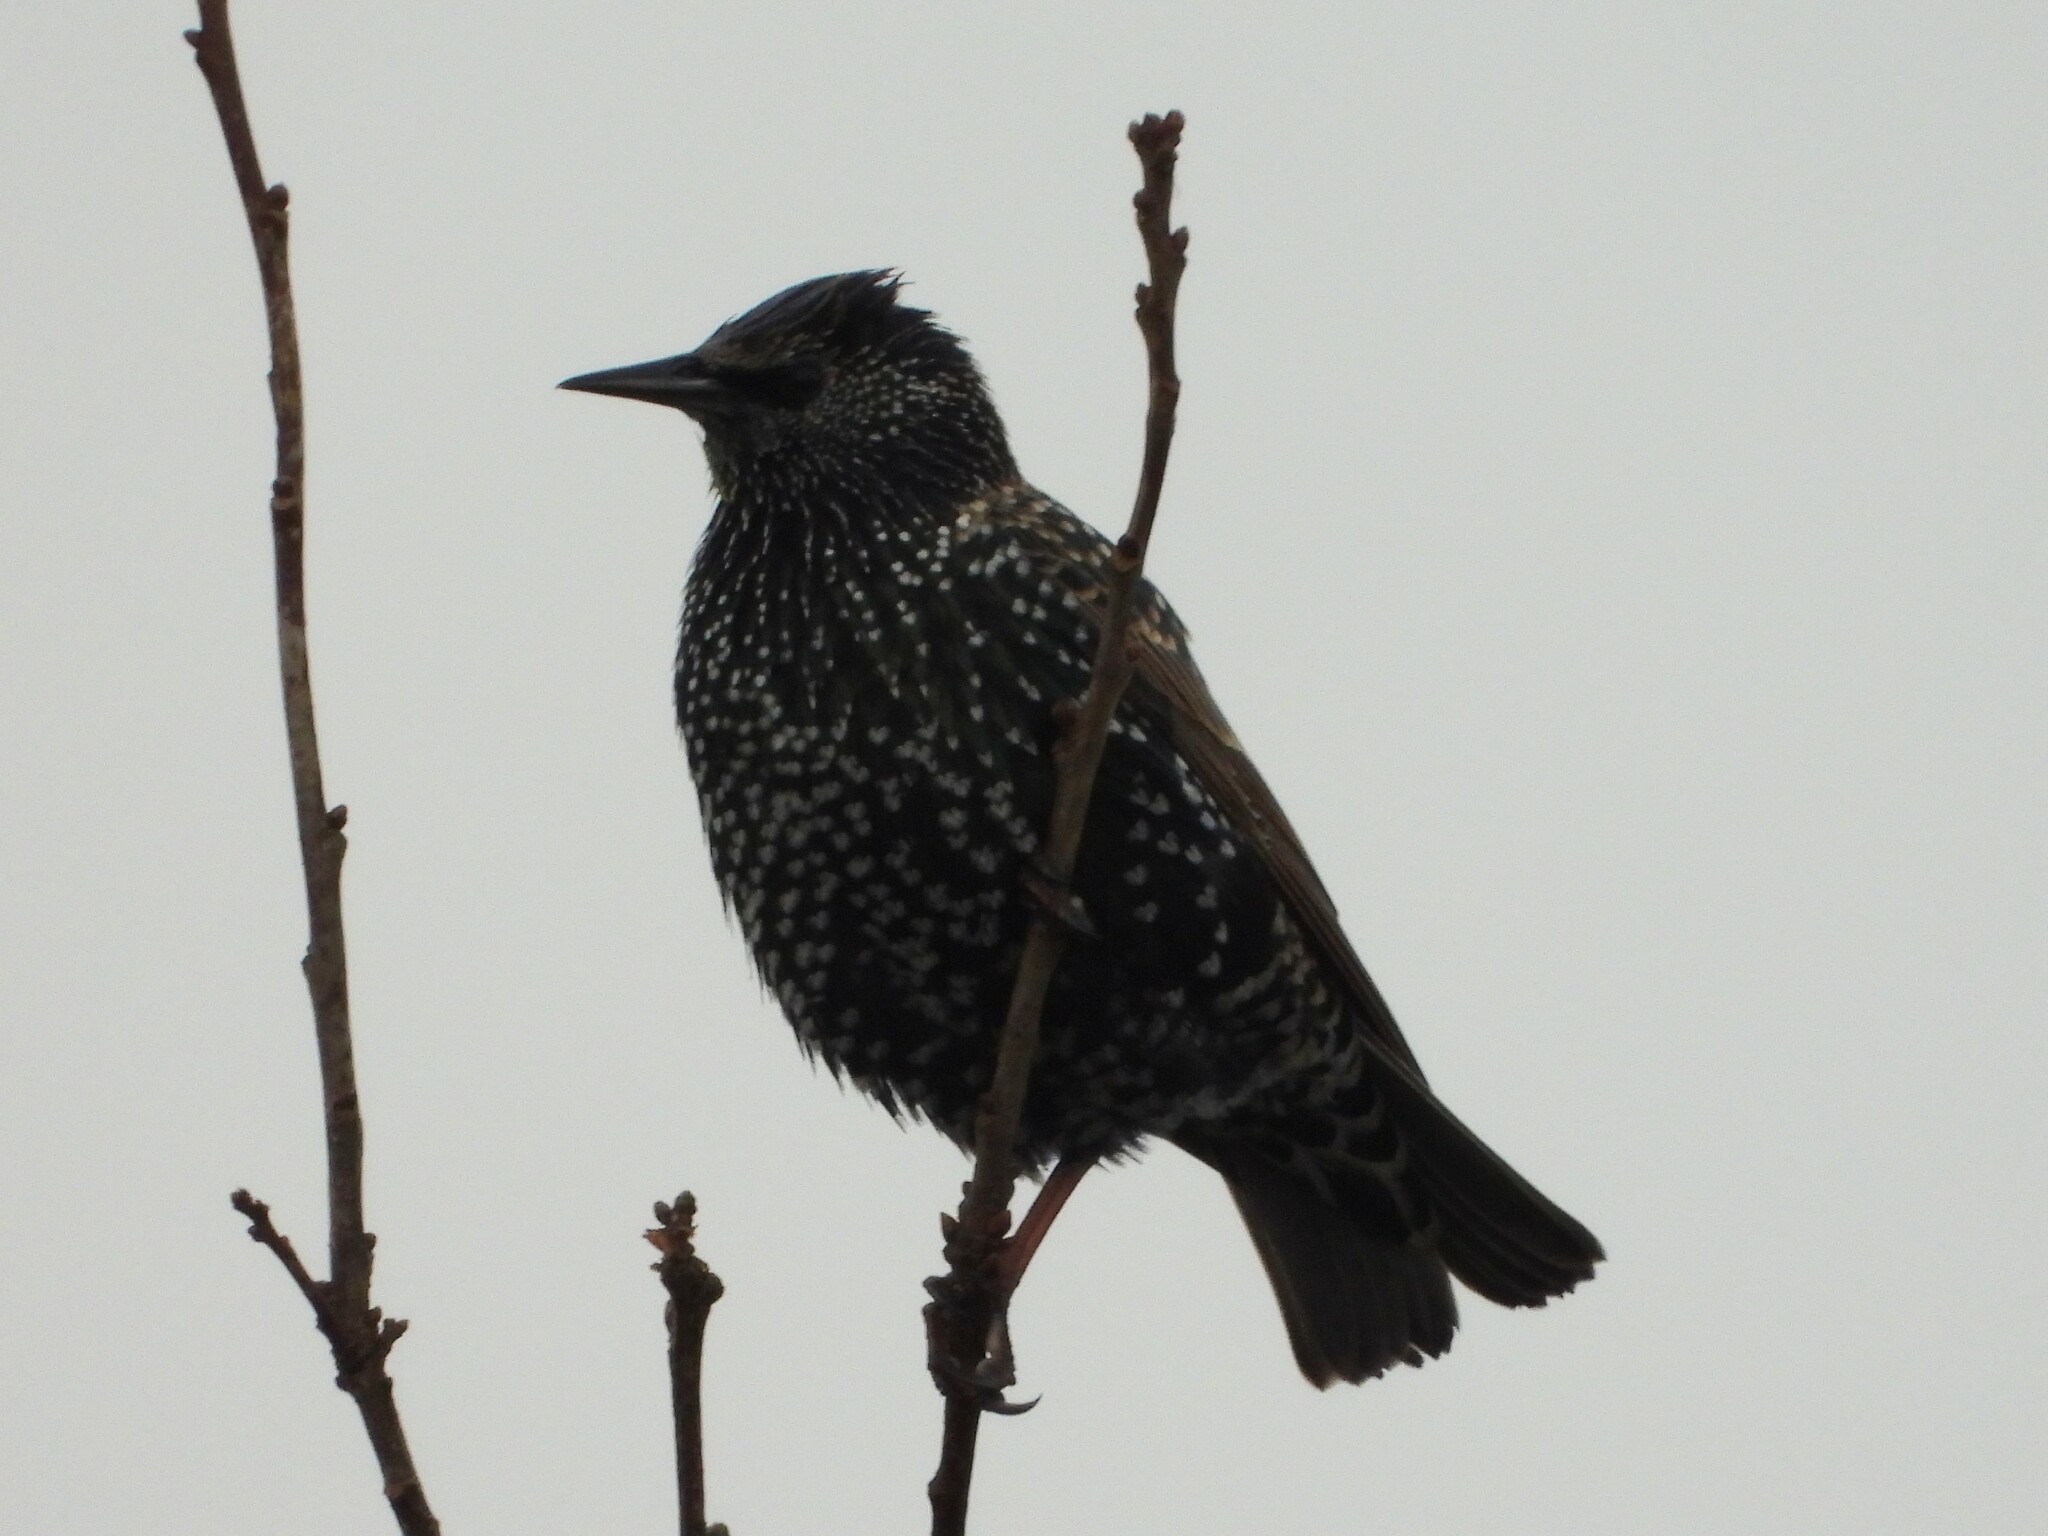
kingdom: Animalia
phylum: Chordata
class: Aves
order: Passeriformes
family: Sturnidae
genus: Sturnus
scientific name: Sturnus vulgaris
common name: Common starling
